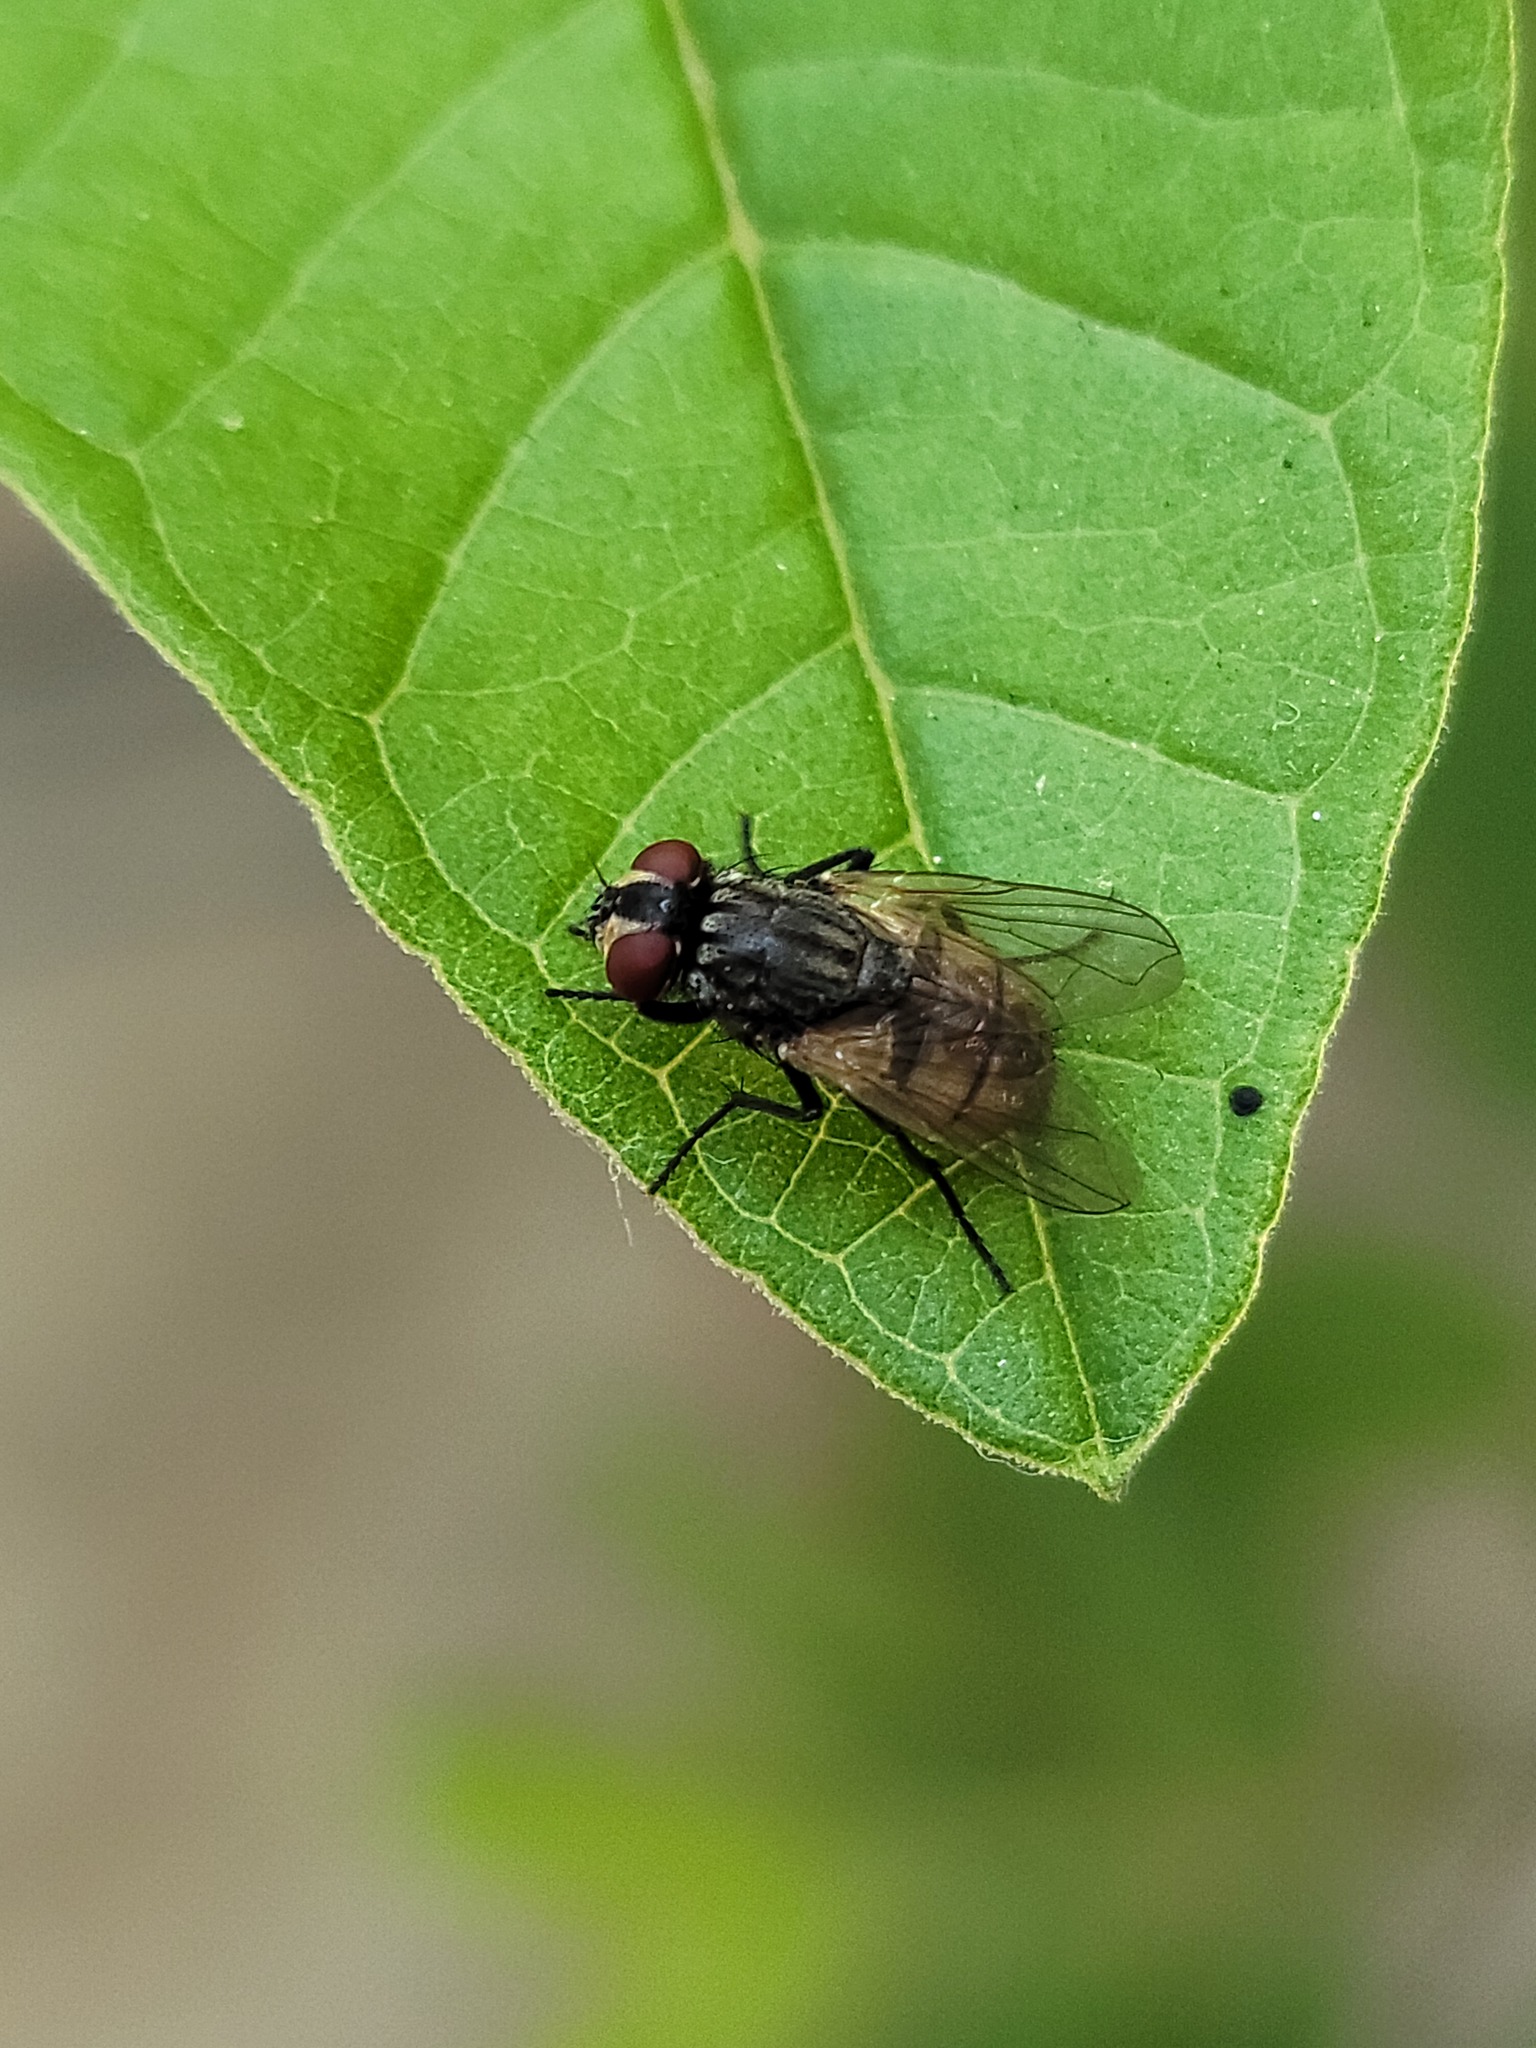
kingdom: Animalia
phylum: Arthropoda
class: Insecta
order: Diptera
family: Muscidae
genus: Musca
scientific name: Musca domestica
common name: House fly
